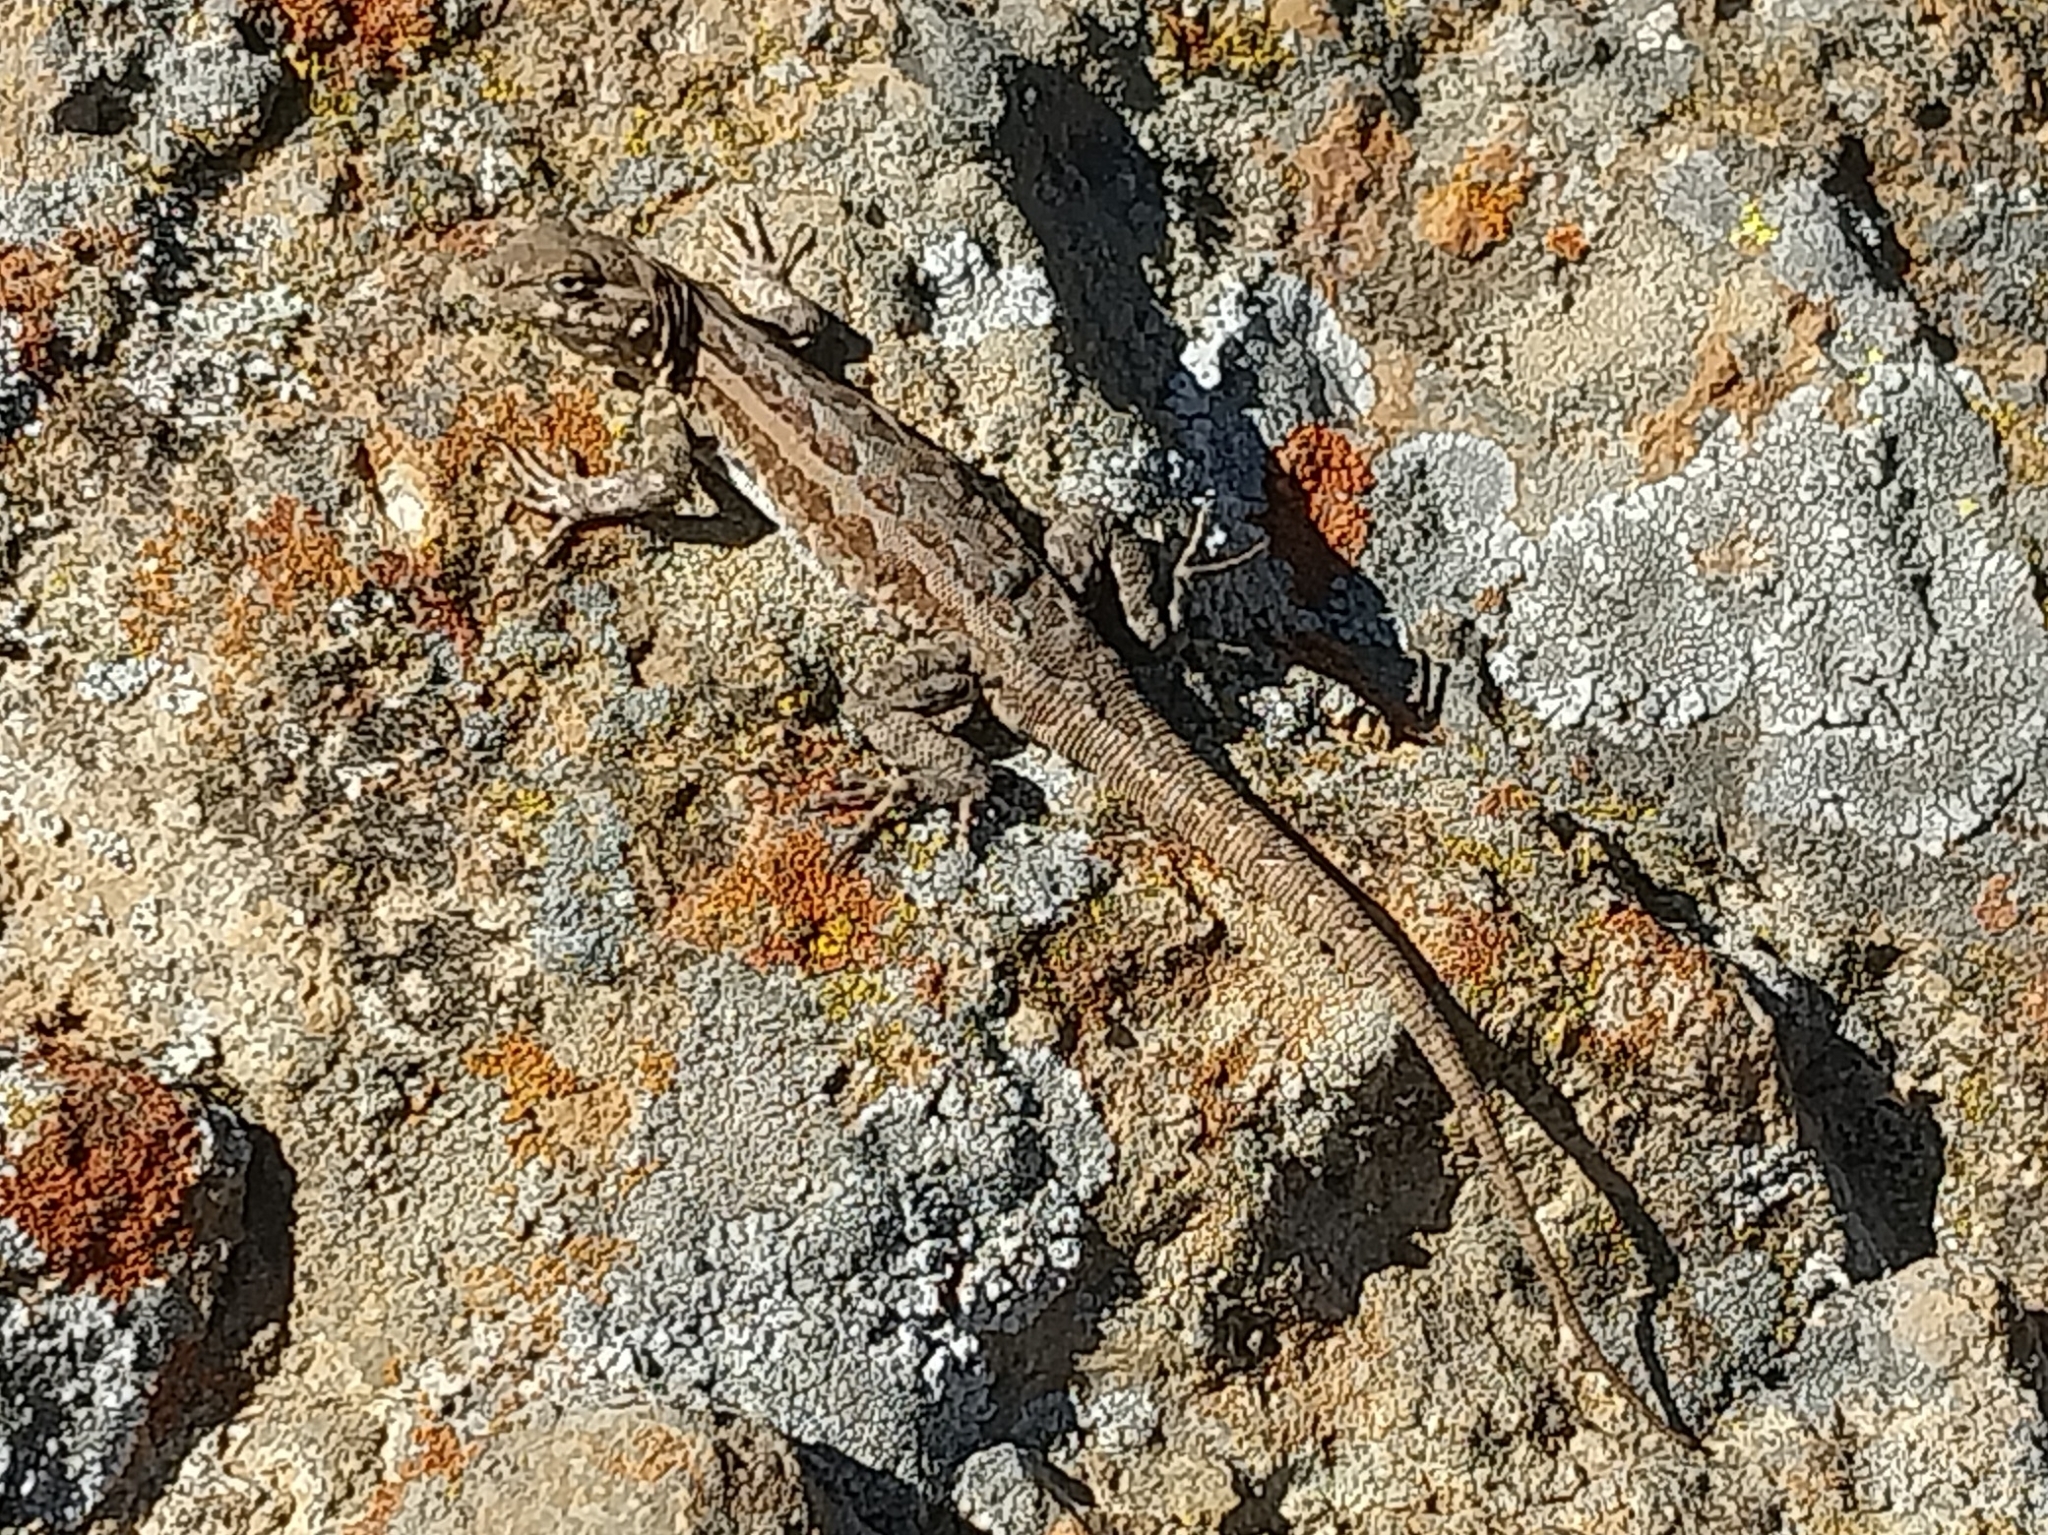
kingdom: Animalia
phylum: Chordata
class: Squamata
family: Phrynosomatidae
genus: Uta
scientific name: Uta stansburiana
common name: Side-blotched lizard
